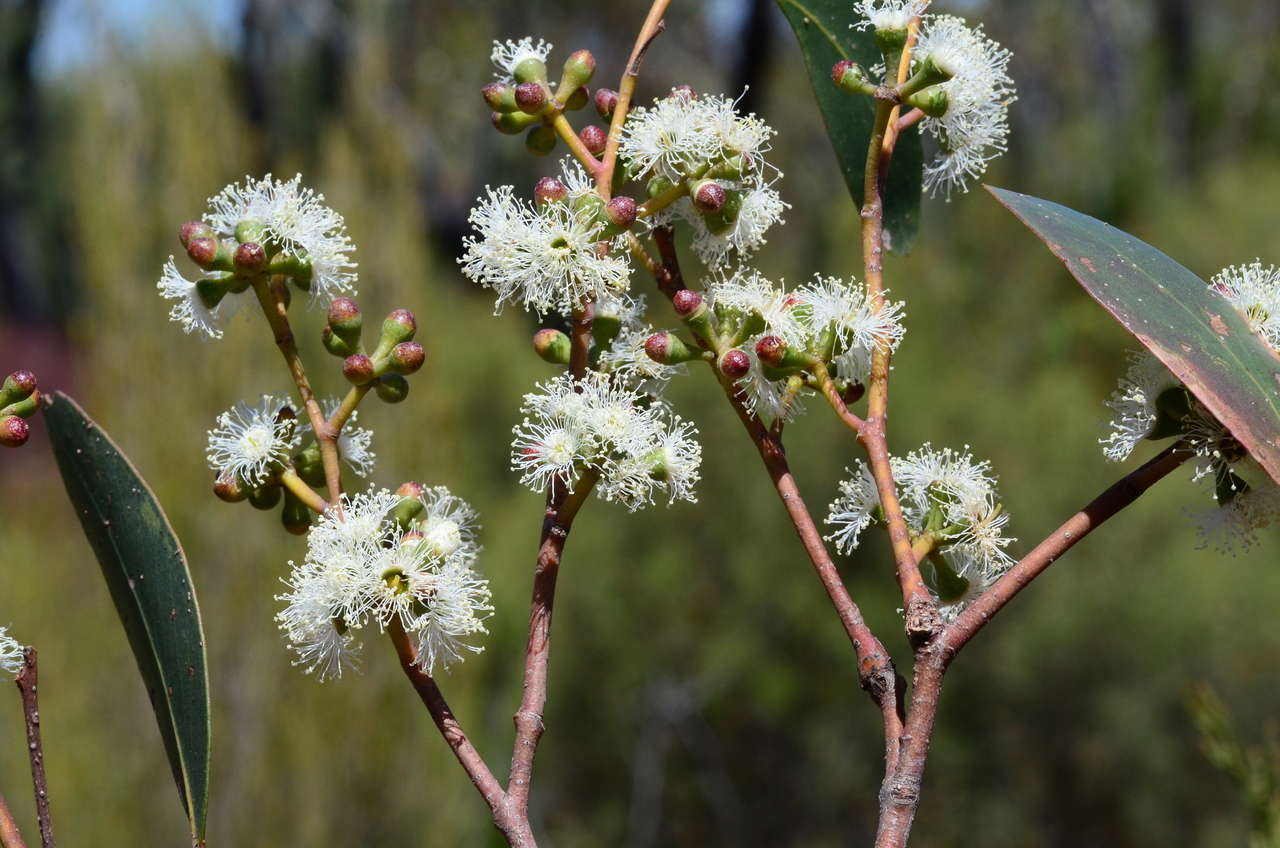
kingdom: Plantae
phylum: Tracheophyta
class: Magnoliopsida
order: Myrtales
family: Myrtaceae
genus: Eucalyptus
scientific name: Eucalyptus arenacea
